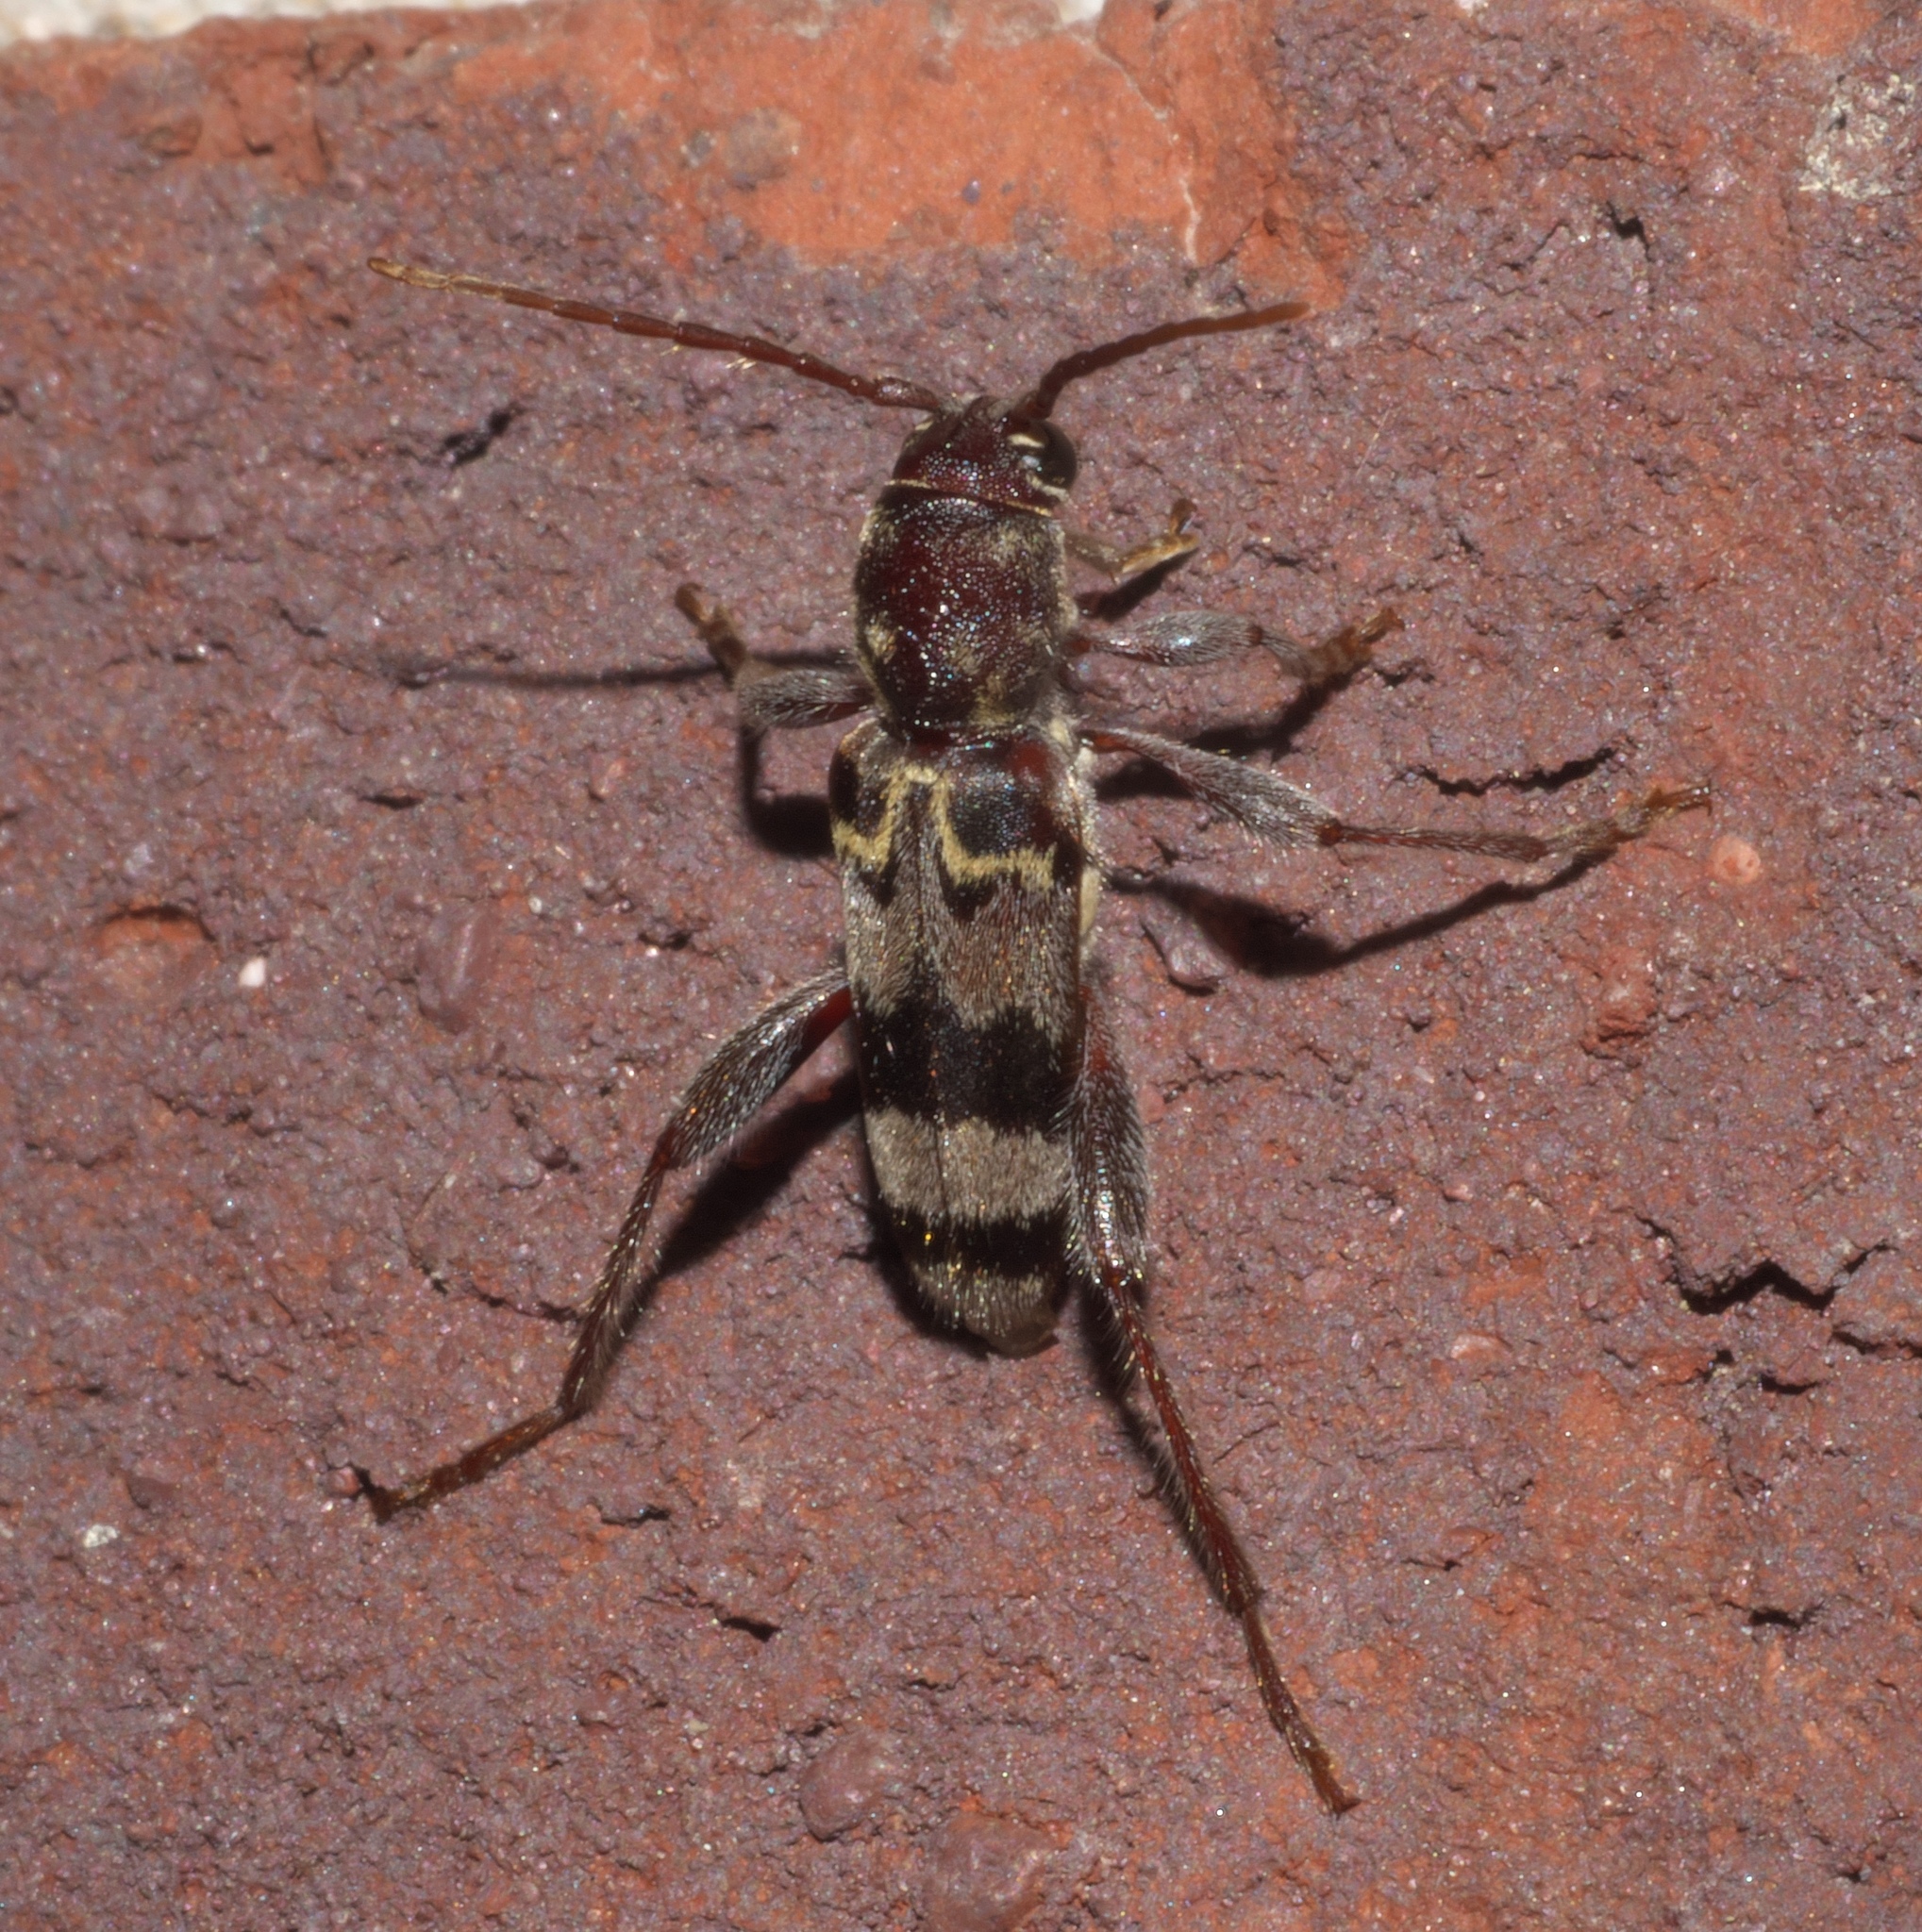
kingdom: Animalia
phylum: Arthropoda
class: Insecta
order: Coleoptera
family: Cerambycidae
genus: Xylotrechus
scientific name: Xylotrechus colonus
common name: Long-horned beetle
